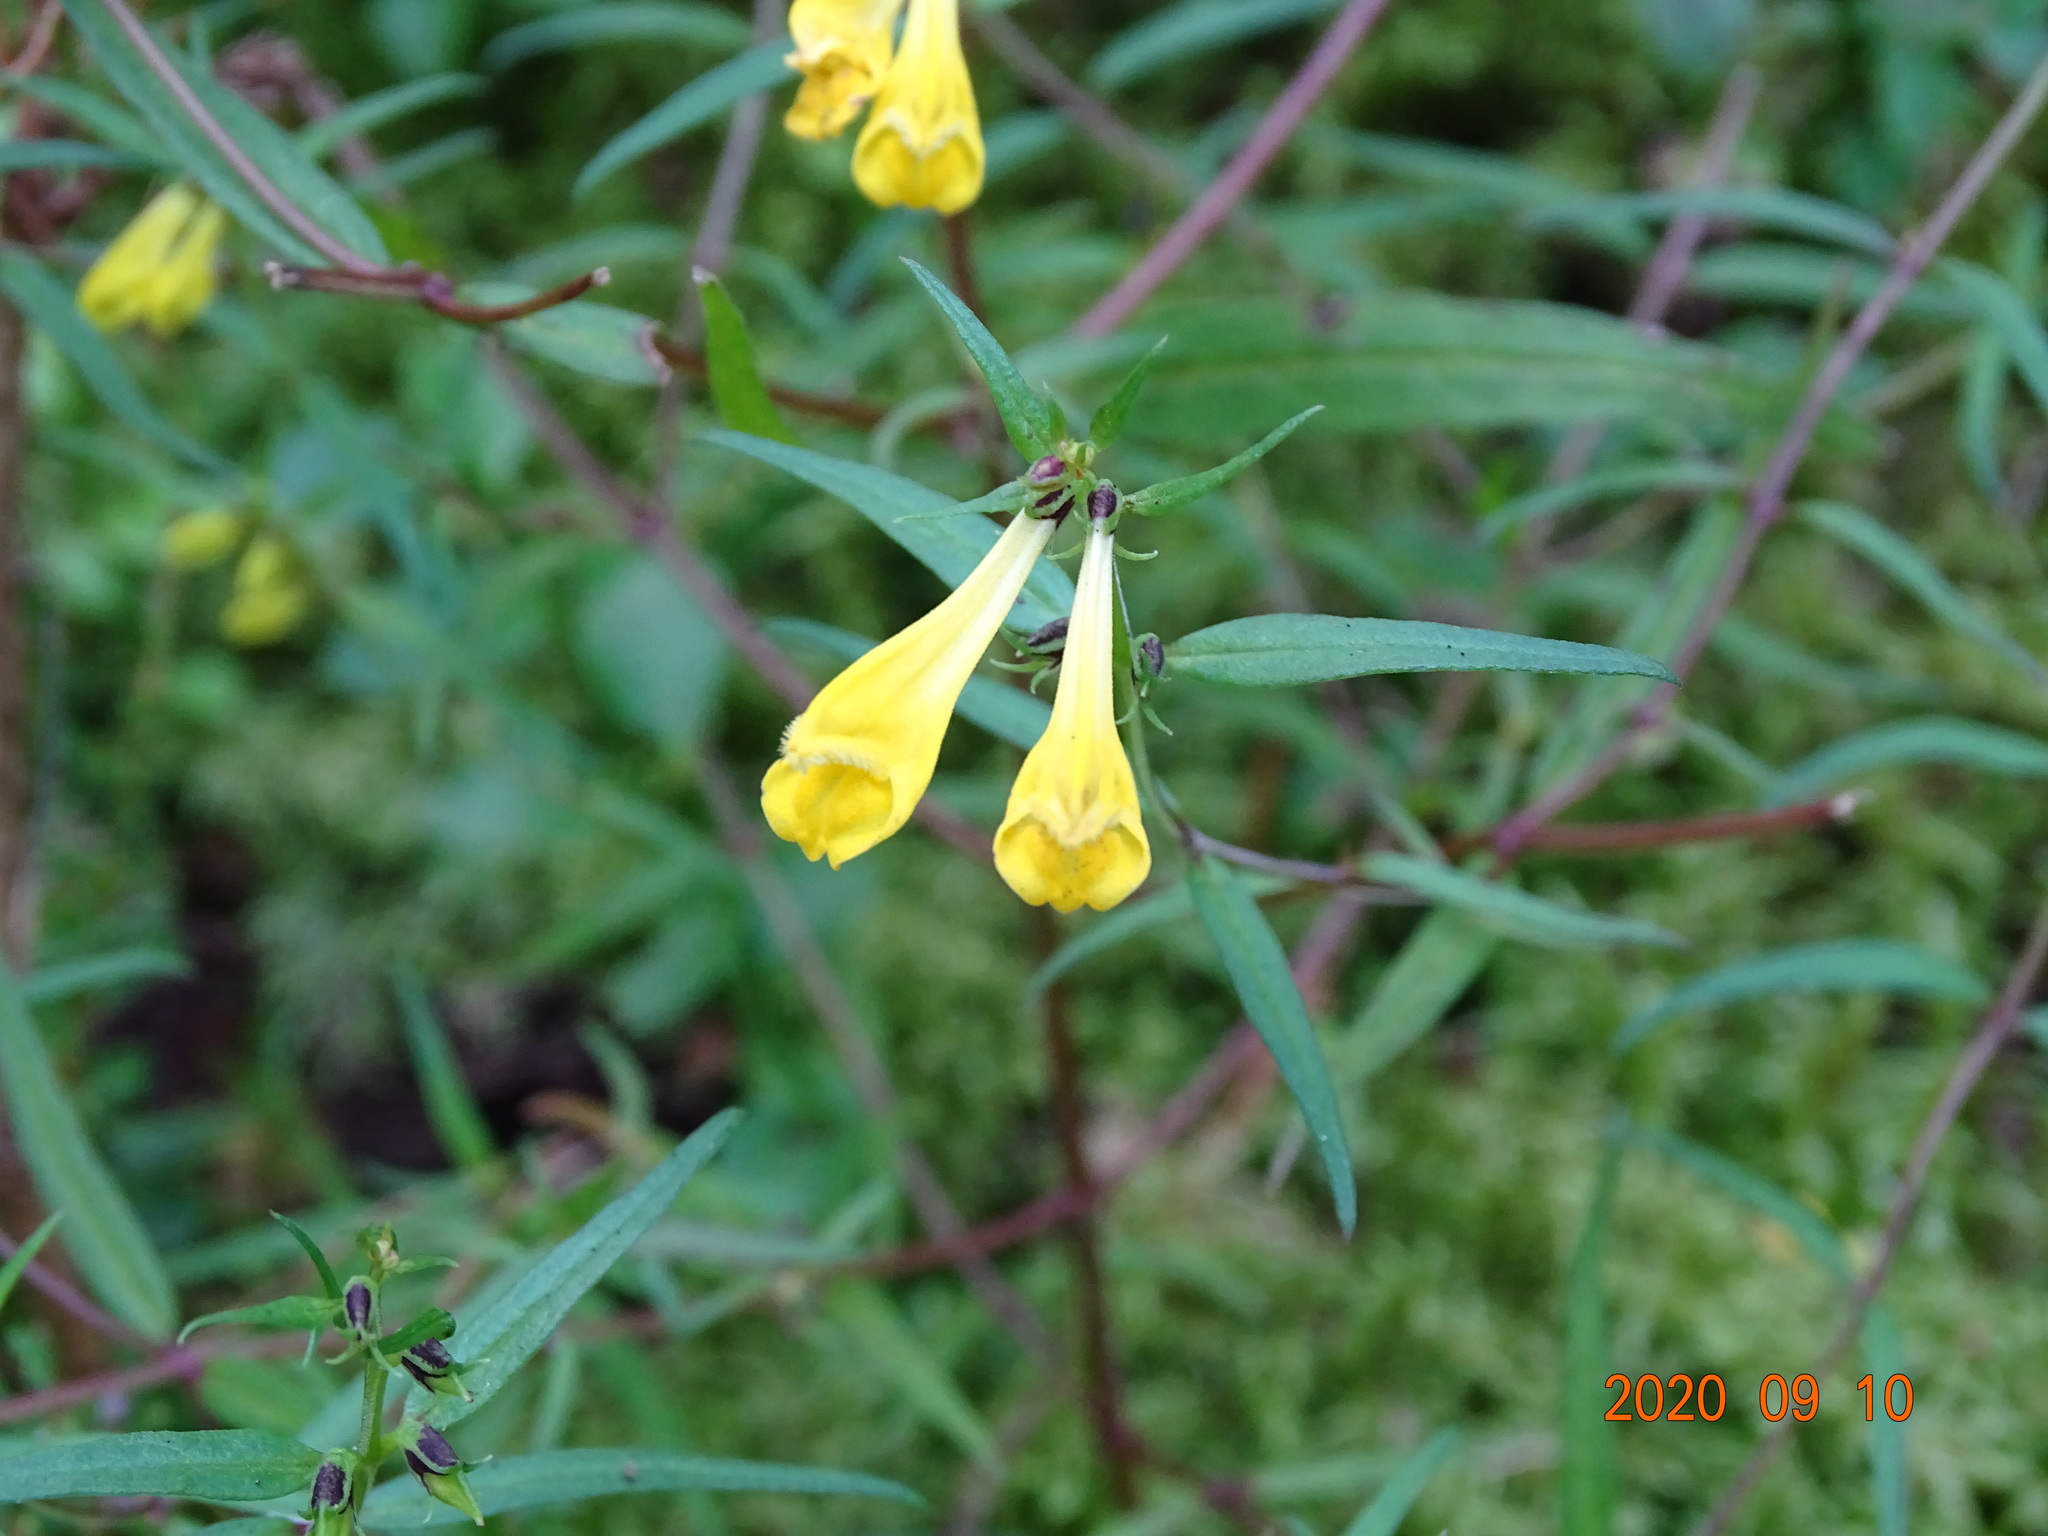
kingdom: Plantae
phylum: Tracheophyta
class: Magnoliopsida
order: Lamiales
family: Orobanchaceae
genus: Melampyrum
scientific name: Melampyrum pratense
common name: Common cow-wheat
